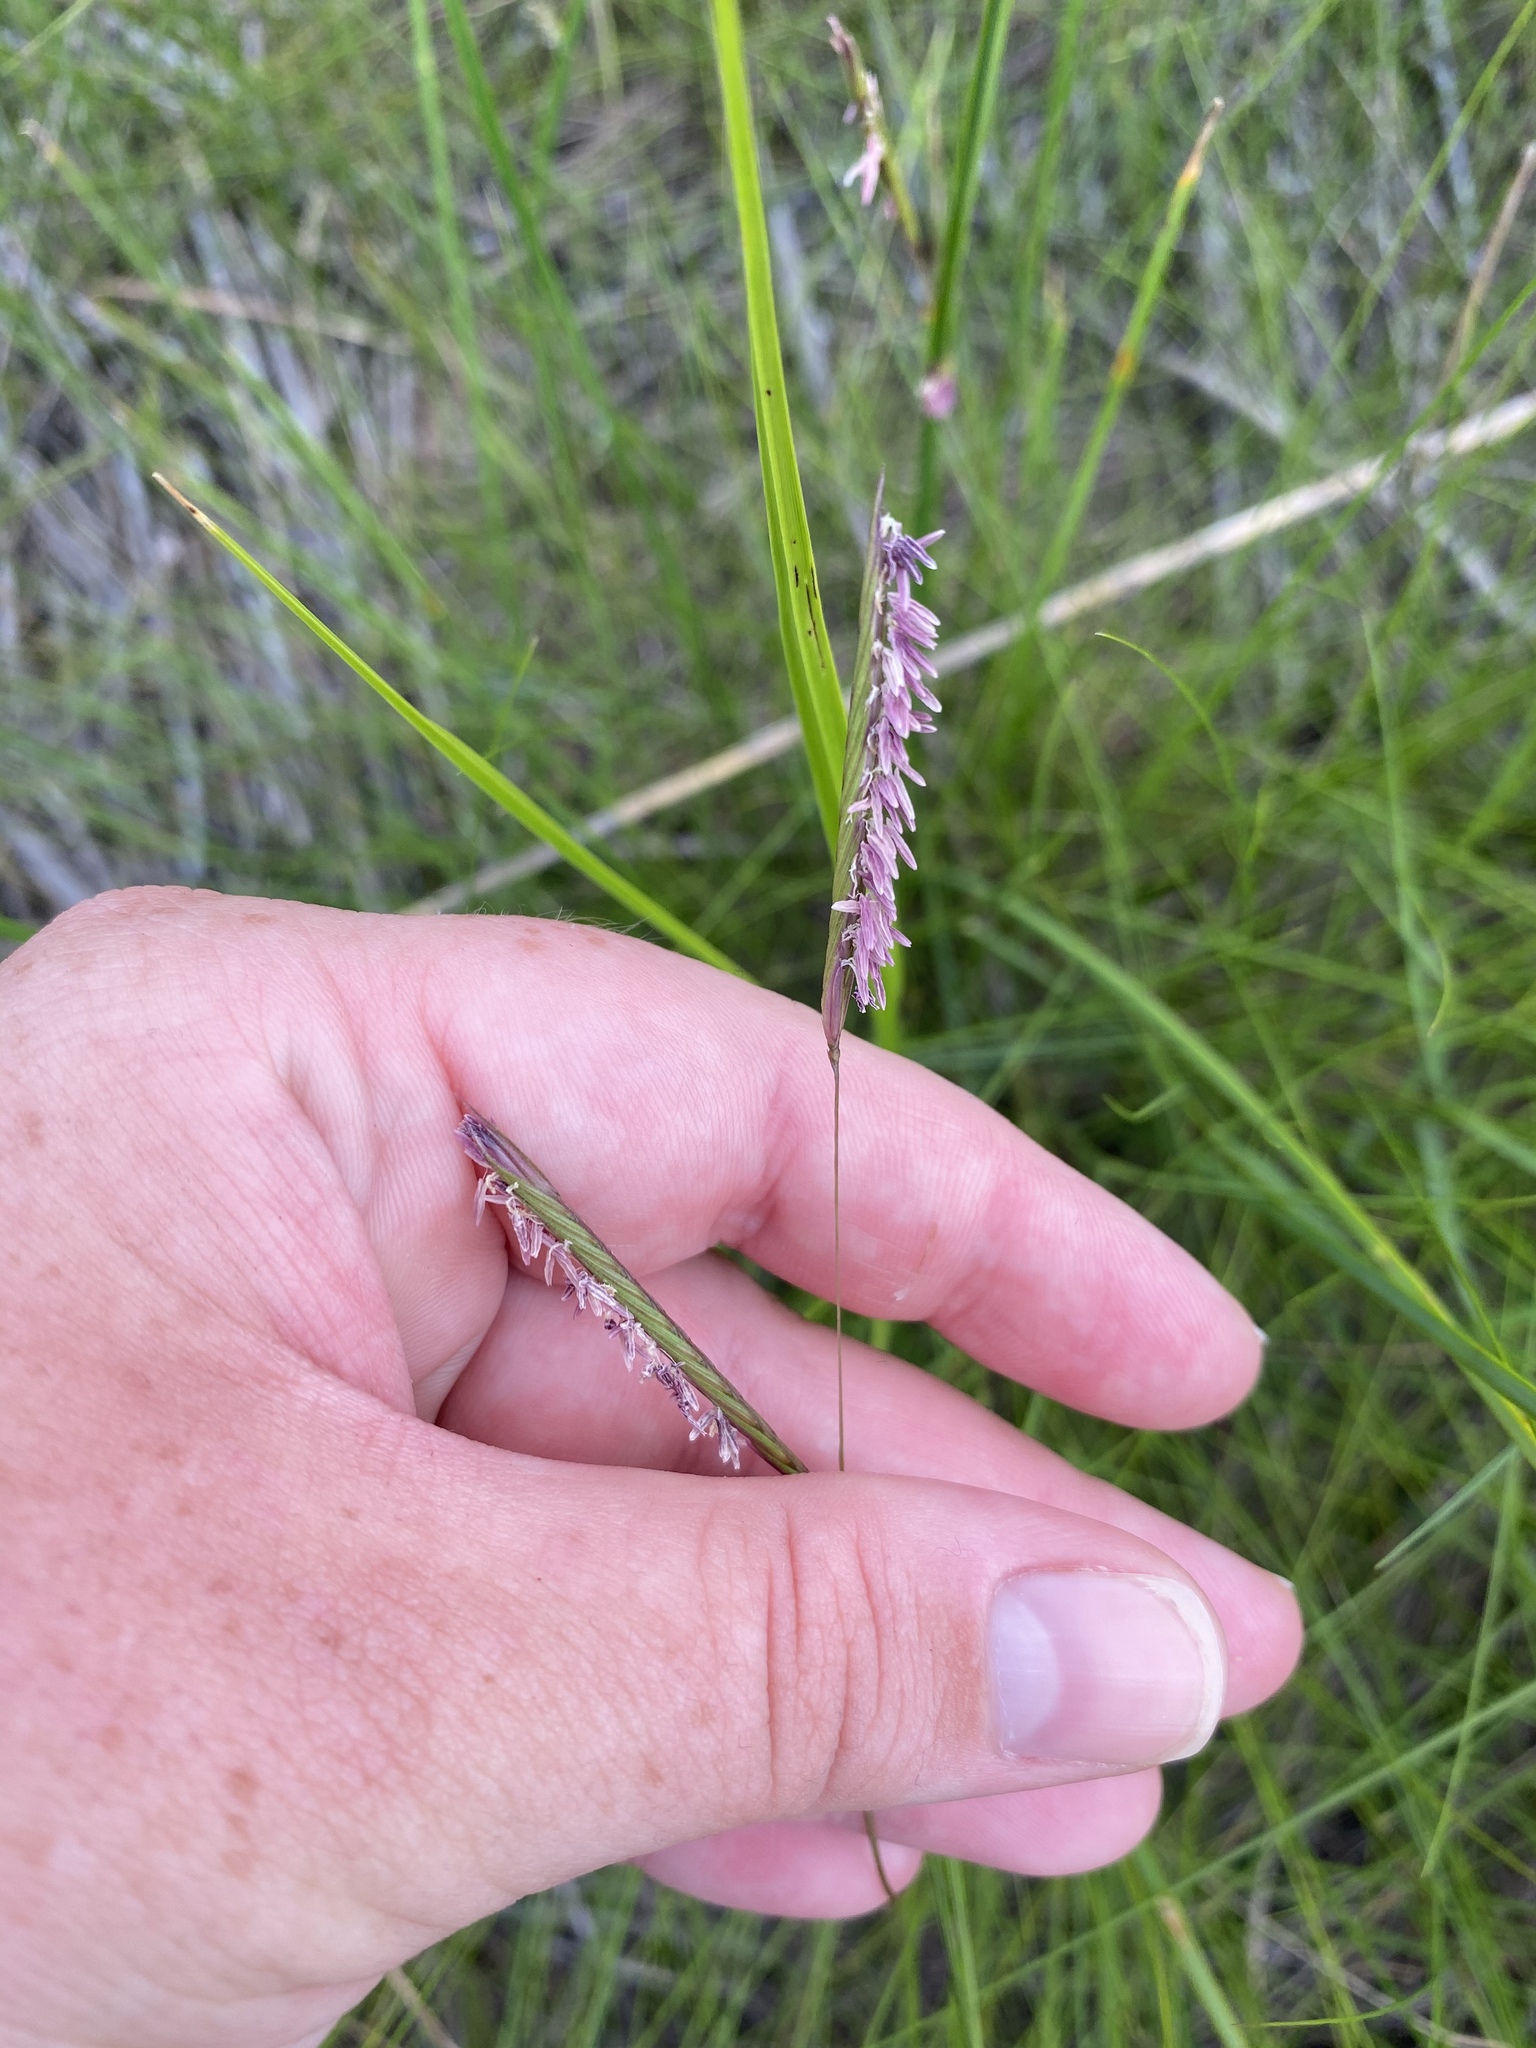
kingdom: Plantae
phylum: Tracheophyta
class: Liliopsida
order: Poales
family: Poaceae
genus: Sporobolus
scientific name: Sporobolus pumilus
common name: Highwater grass
